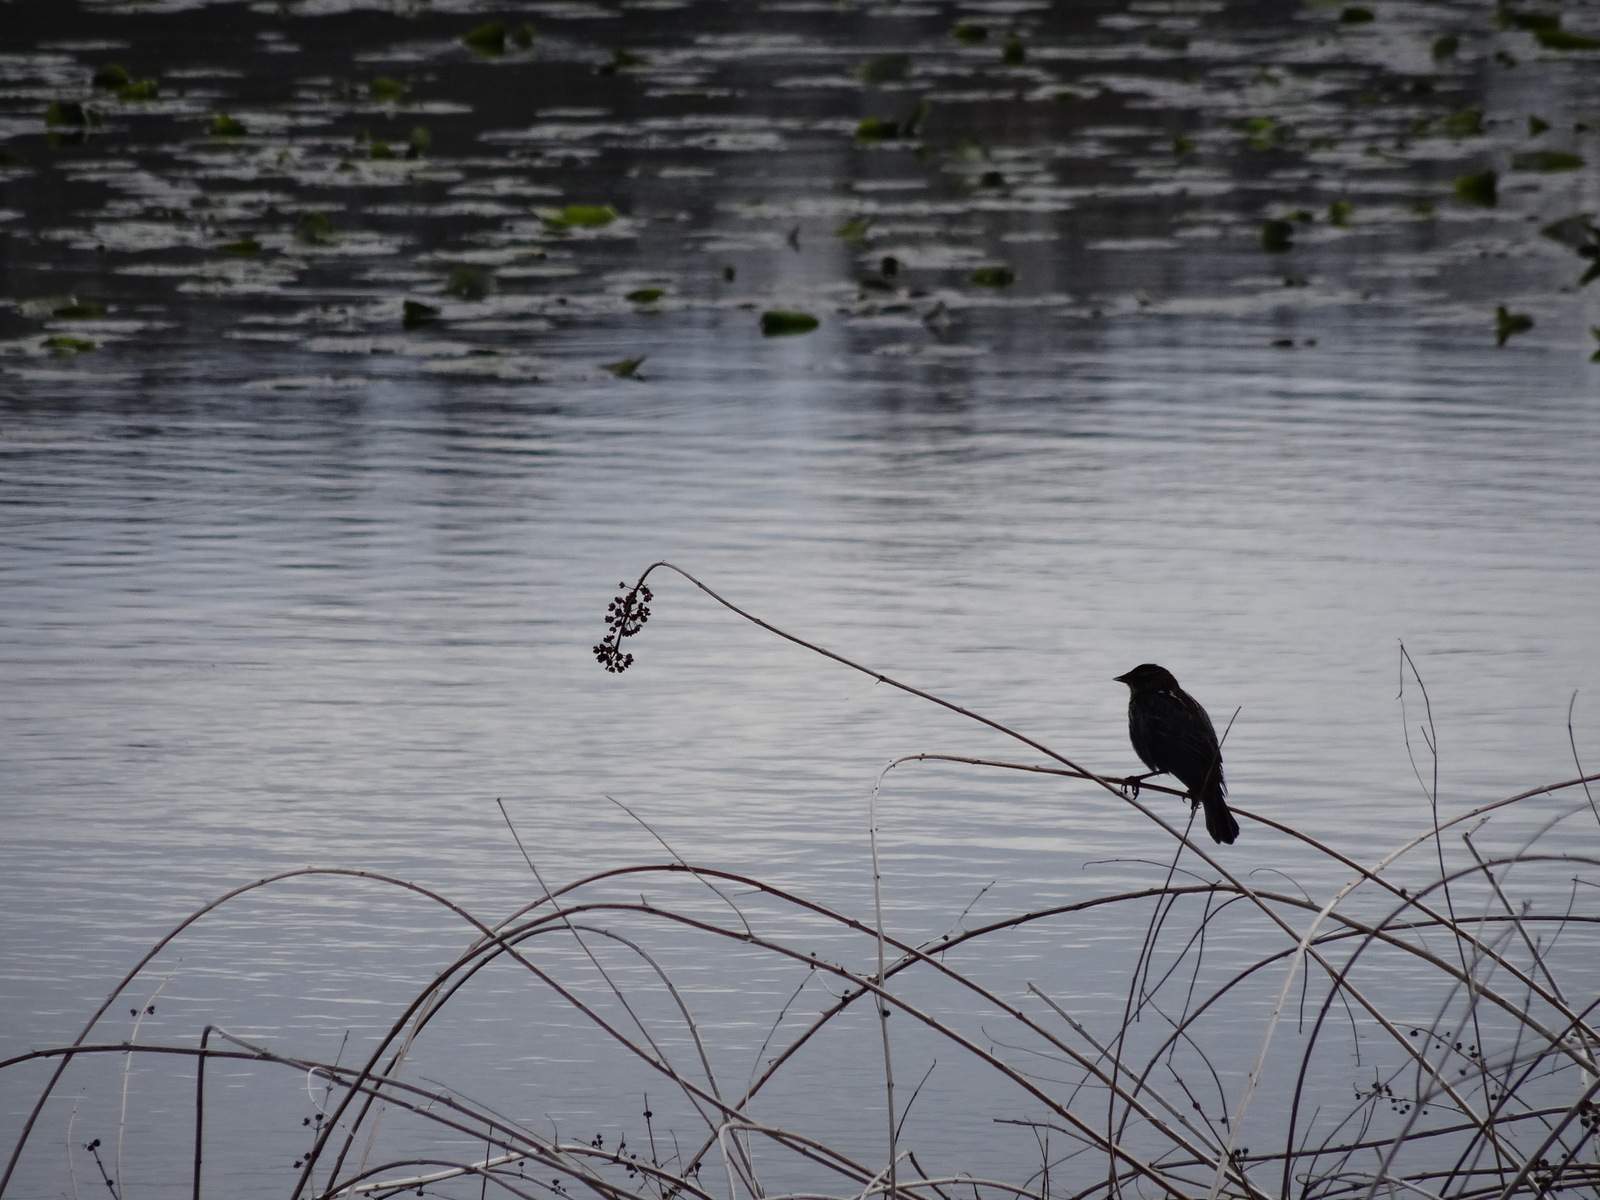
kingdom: Animalia
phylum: Chordata
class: Aves
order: Passeriformes
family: Icteridae
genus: Agelaius
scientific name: Agelaius phoeniceus
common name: Red-winged blackbird
